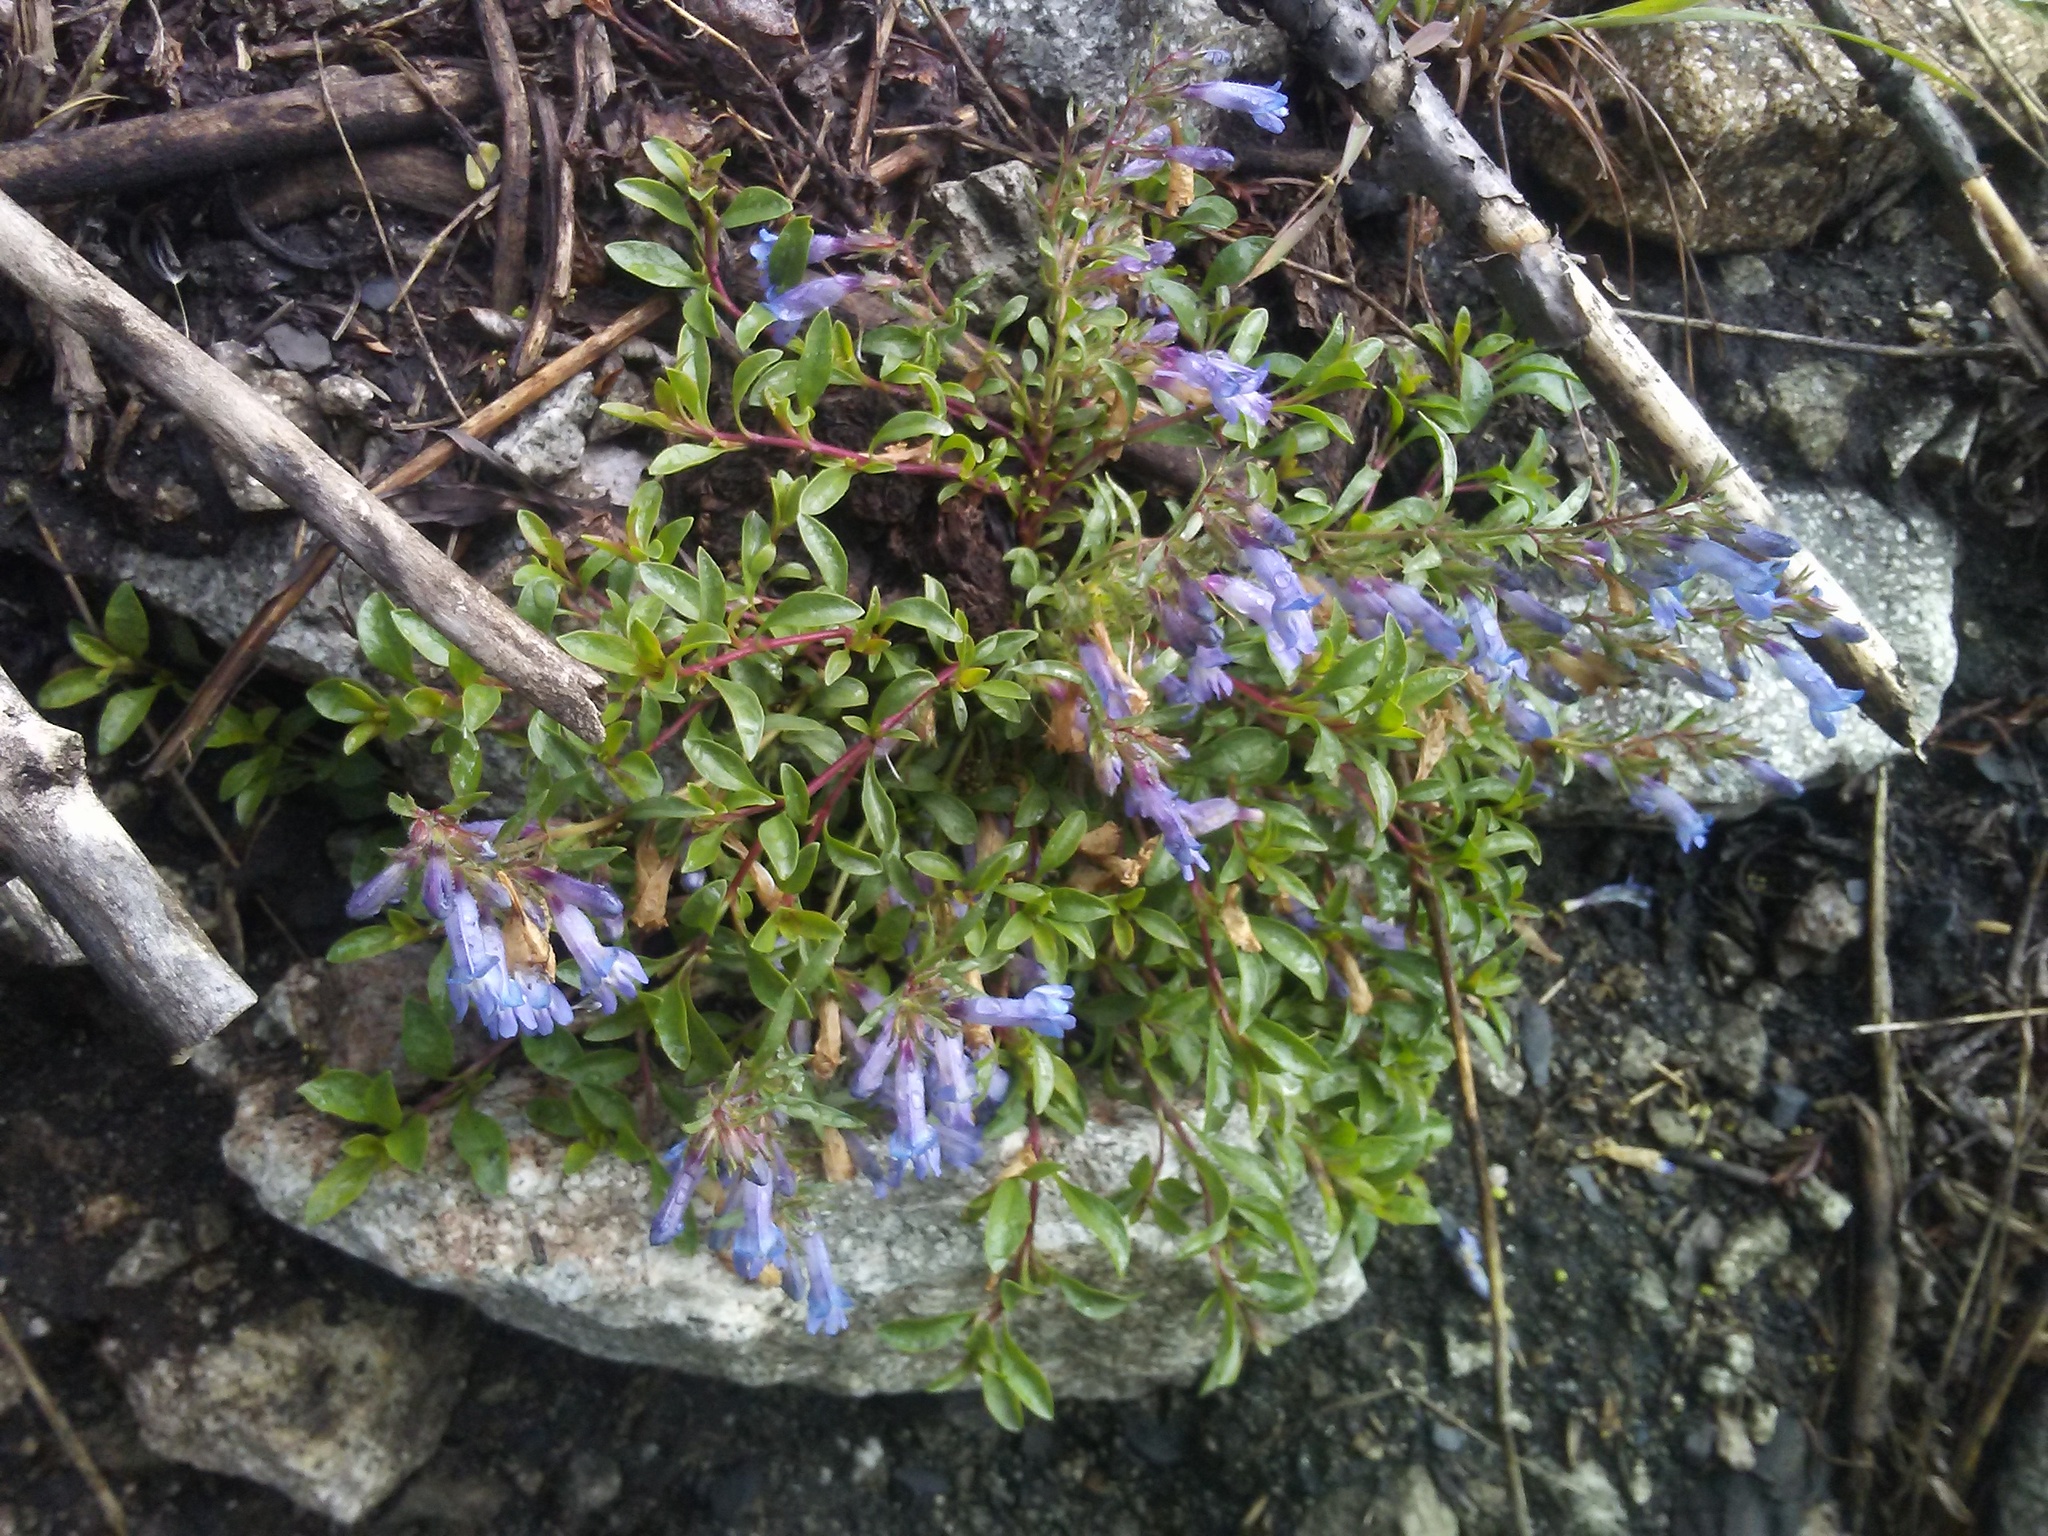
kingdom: Plantae
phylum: Tracheophyta
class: Magnoliopsida
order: Lamiales
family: Plantaginaceae
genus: Penstemon
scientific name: Penstemon crandallii
